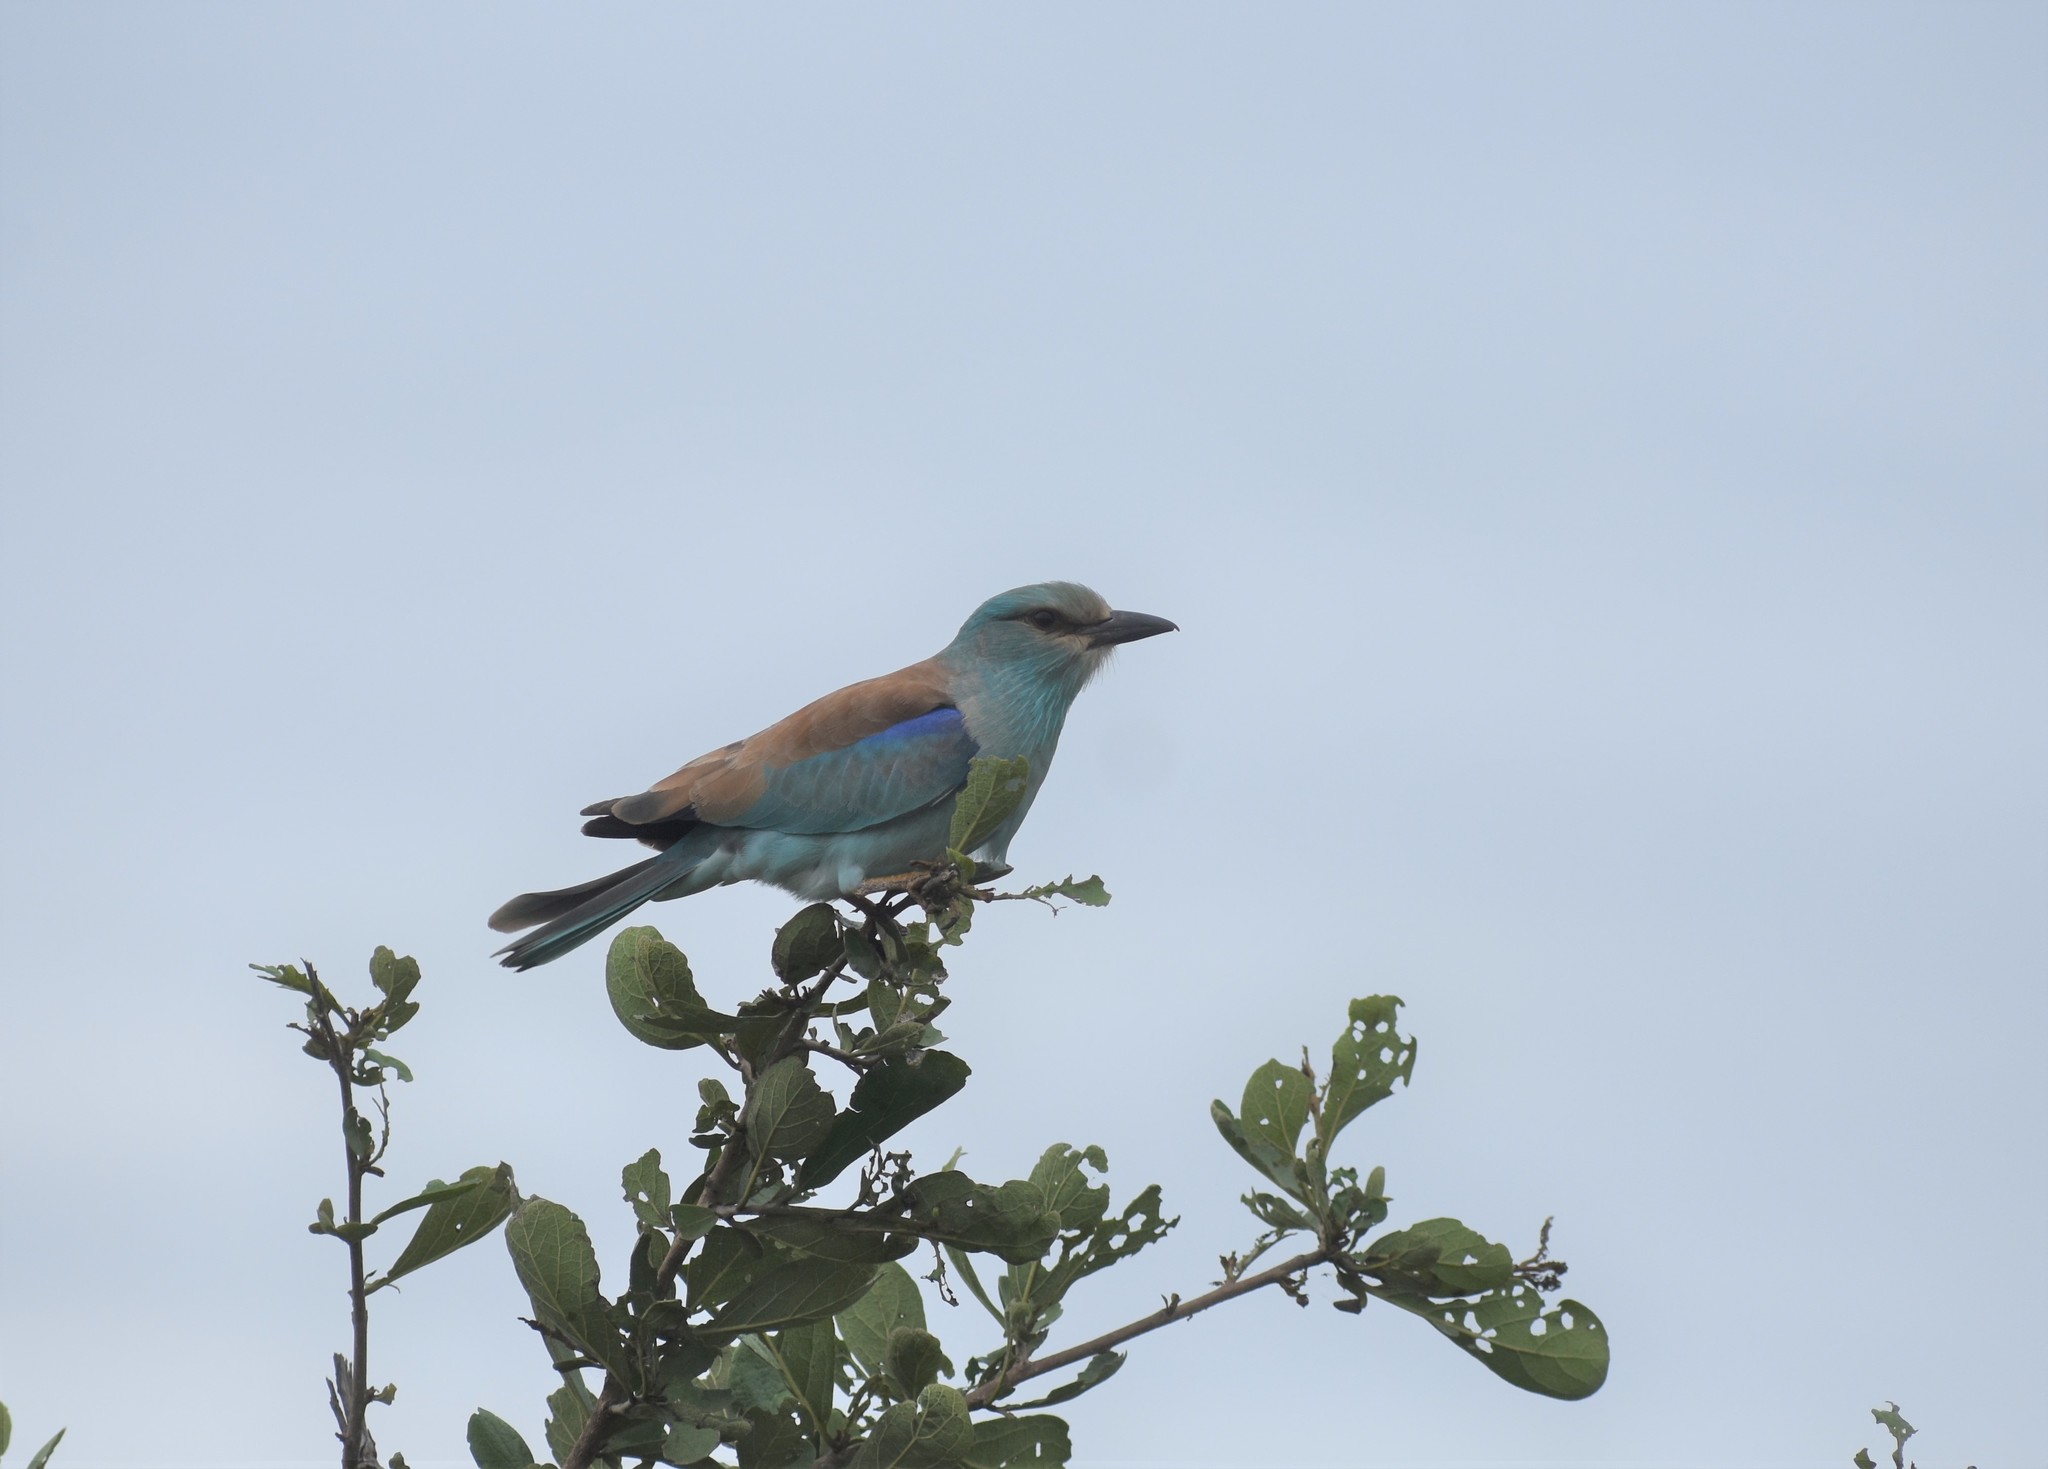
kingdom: Animalia
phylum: Chordata
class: Aves
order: Coraciiformes
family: Coraciidae
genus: Coracias
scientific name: Coracias garrulus
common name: European roller
